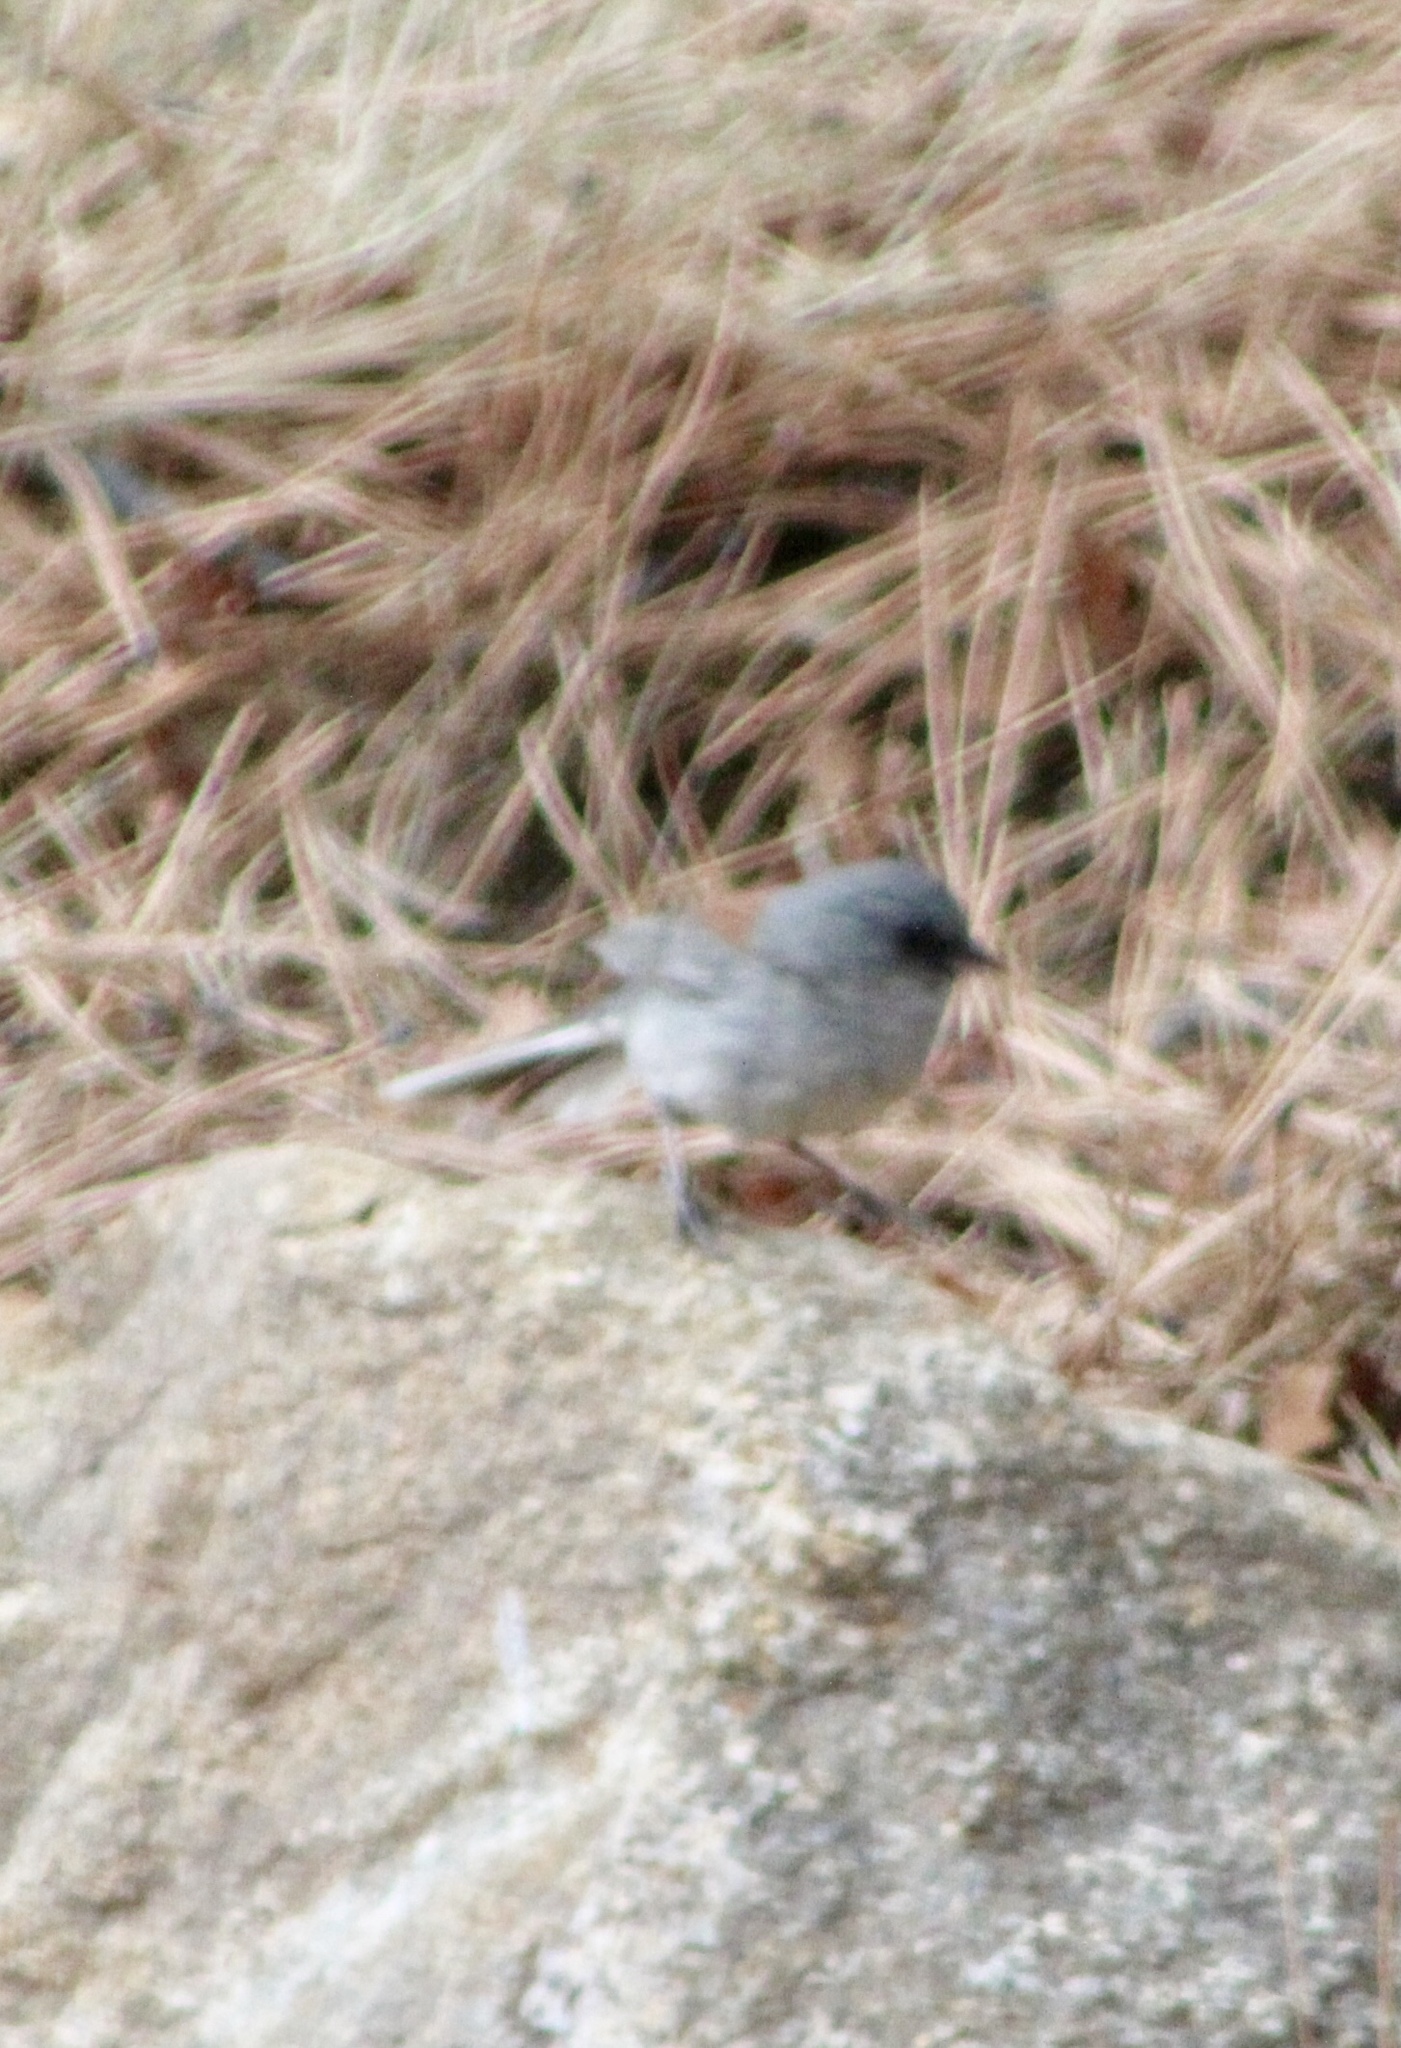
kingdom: Animalia
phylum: Chordata
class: Aves
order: Passeriformes
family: Passerellidae
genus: Junco
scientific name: Junco hyemalis
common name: Dark-eyed junco
